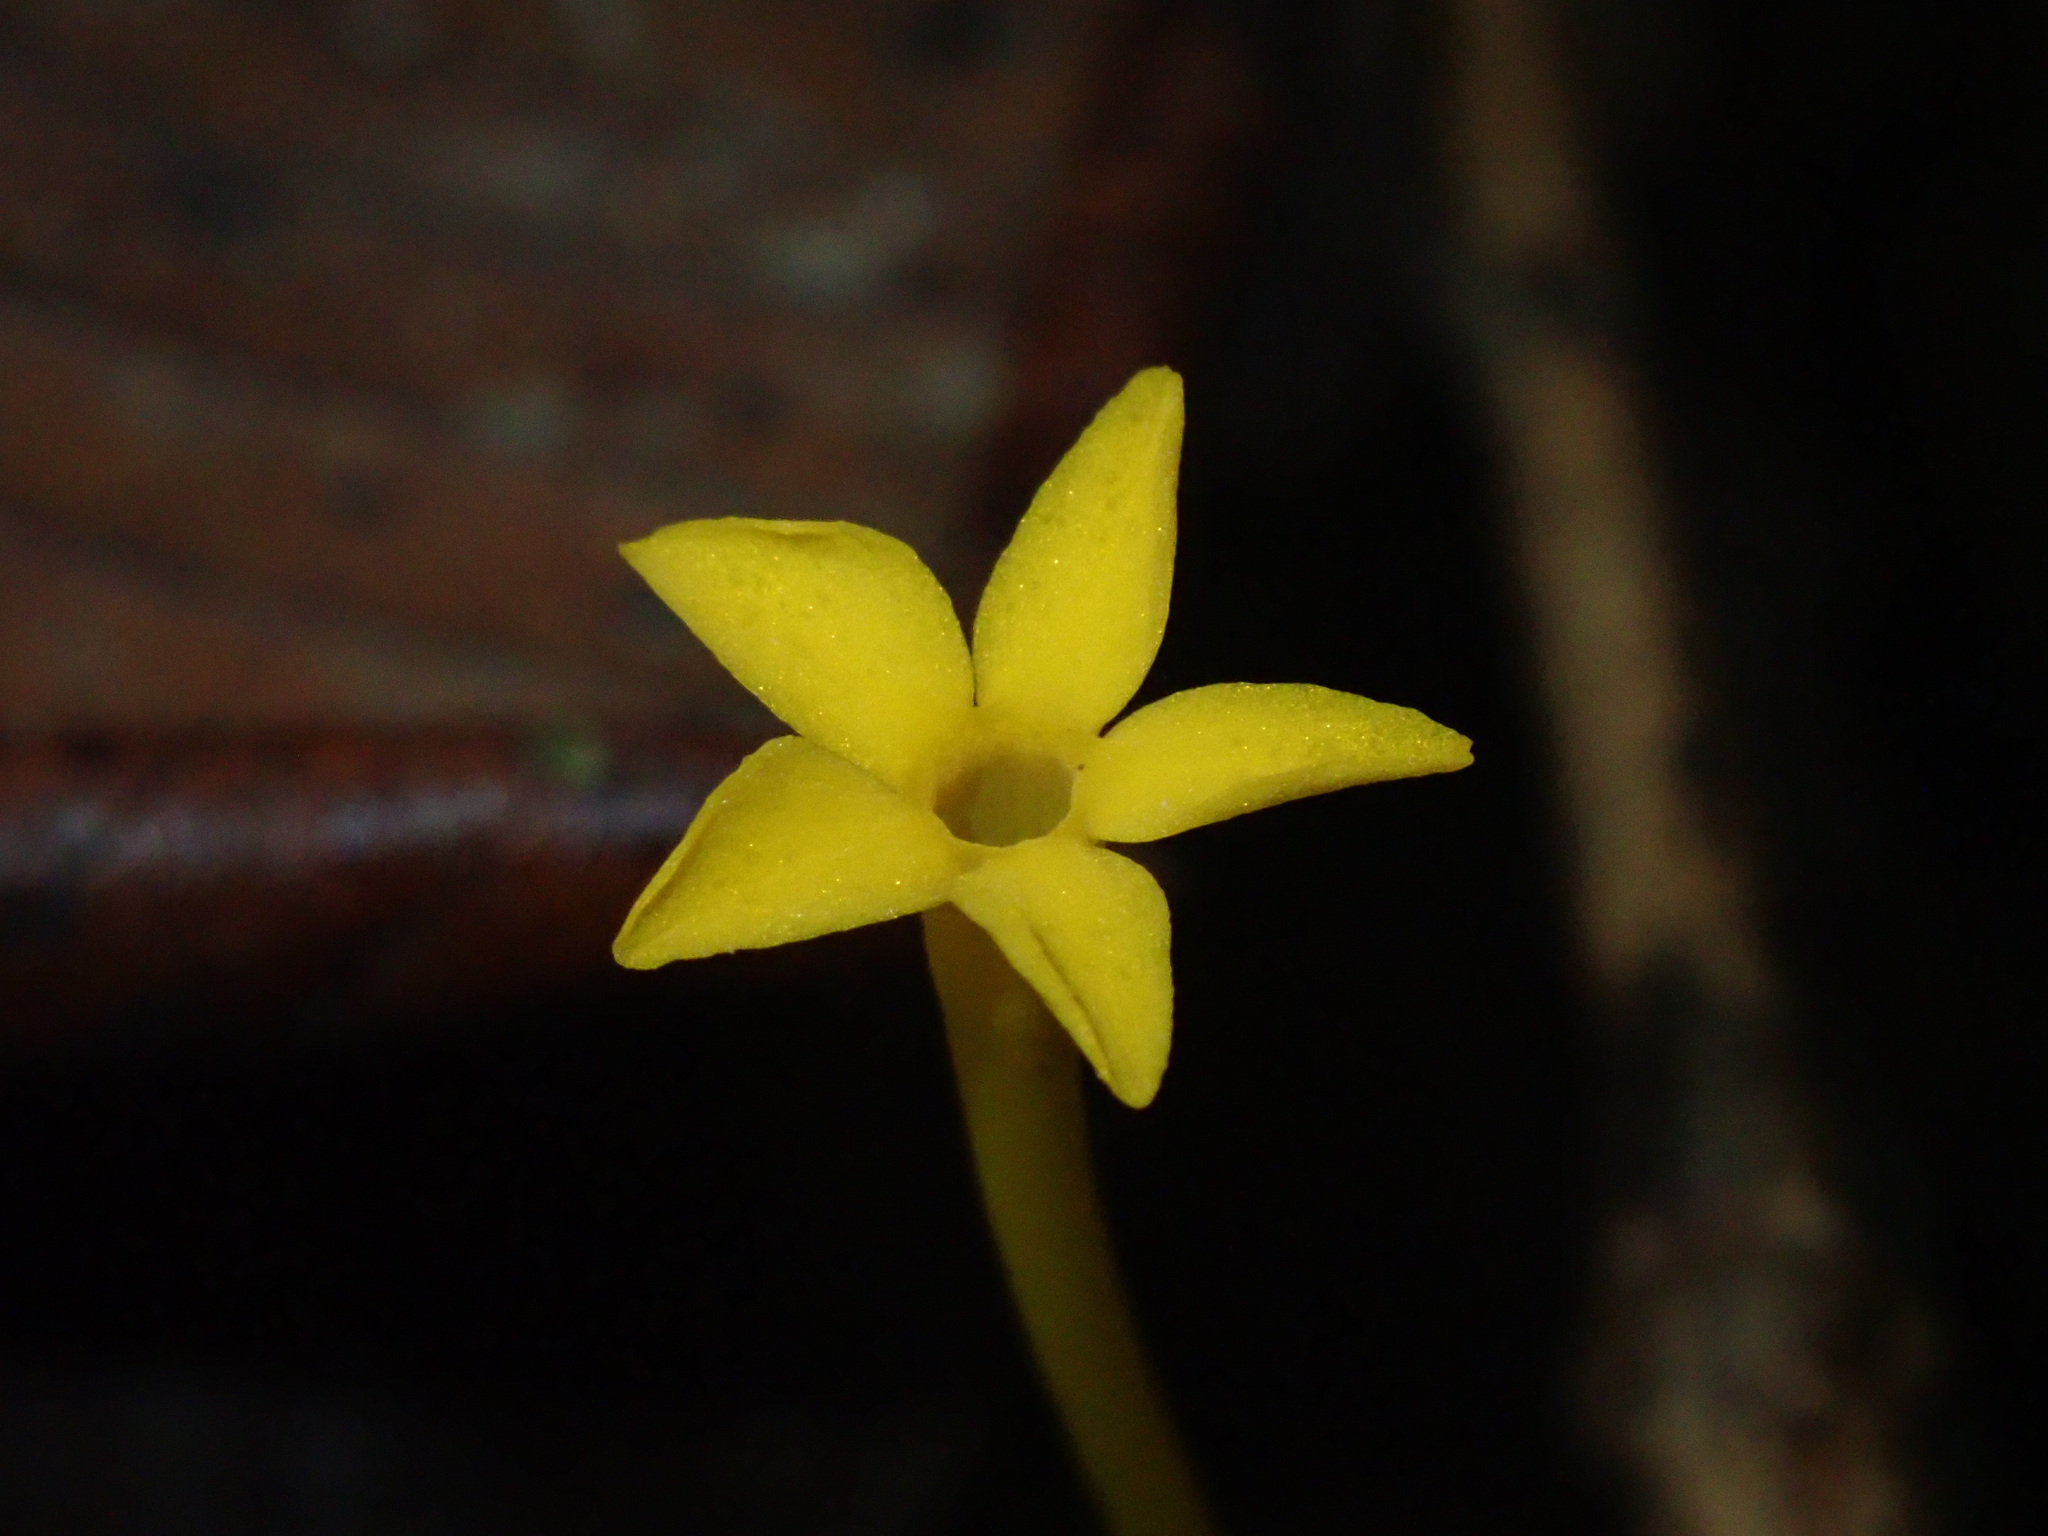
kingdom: Plantae
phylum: Tracheophyta
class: Magnoliopsida
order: Gentianales
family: Gentianaceae
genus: Voyria
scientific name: Voyria aphylla
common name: Leafless ghost plant
